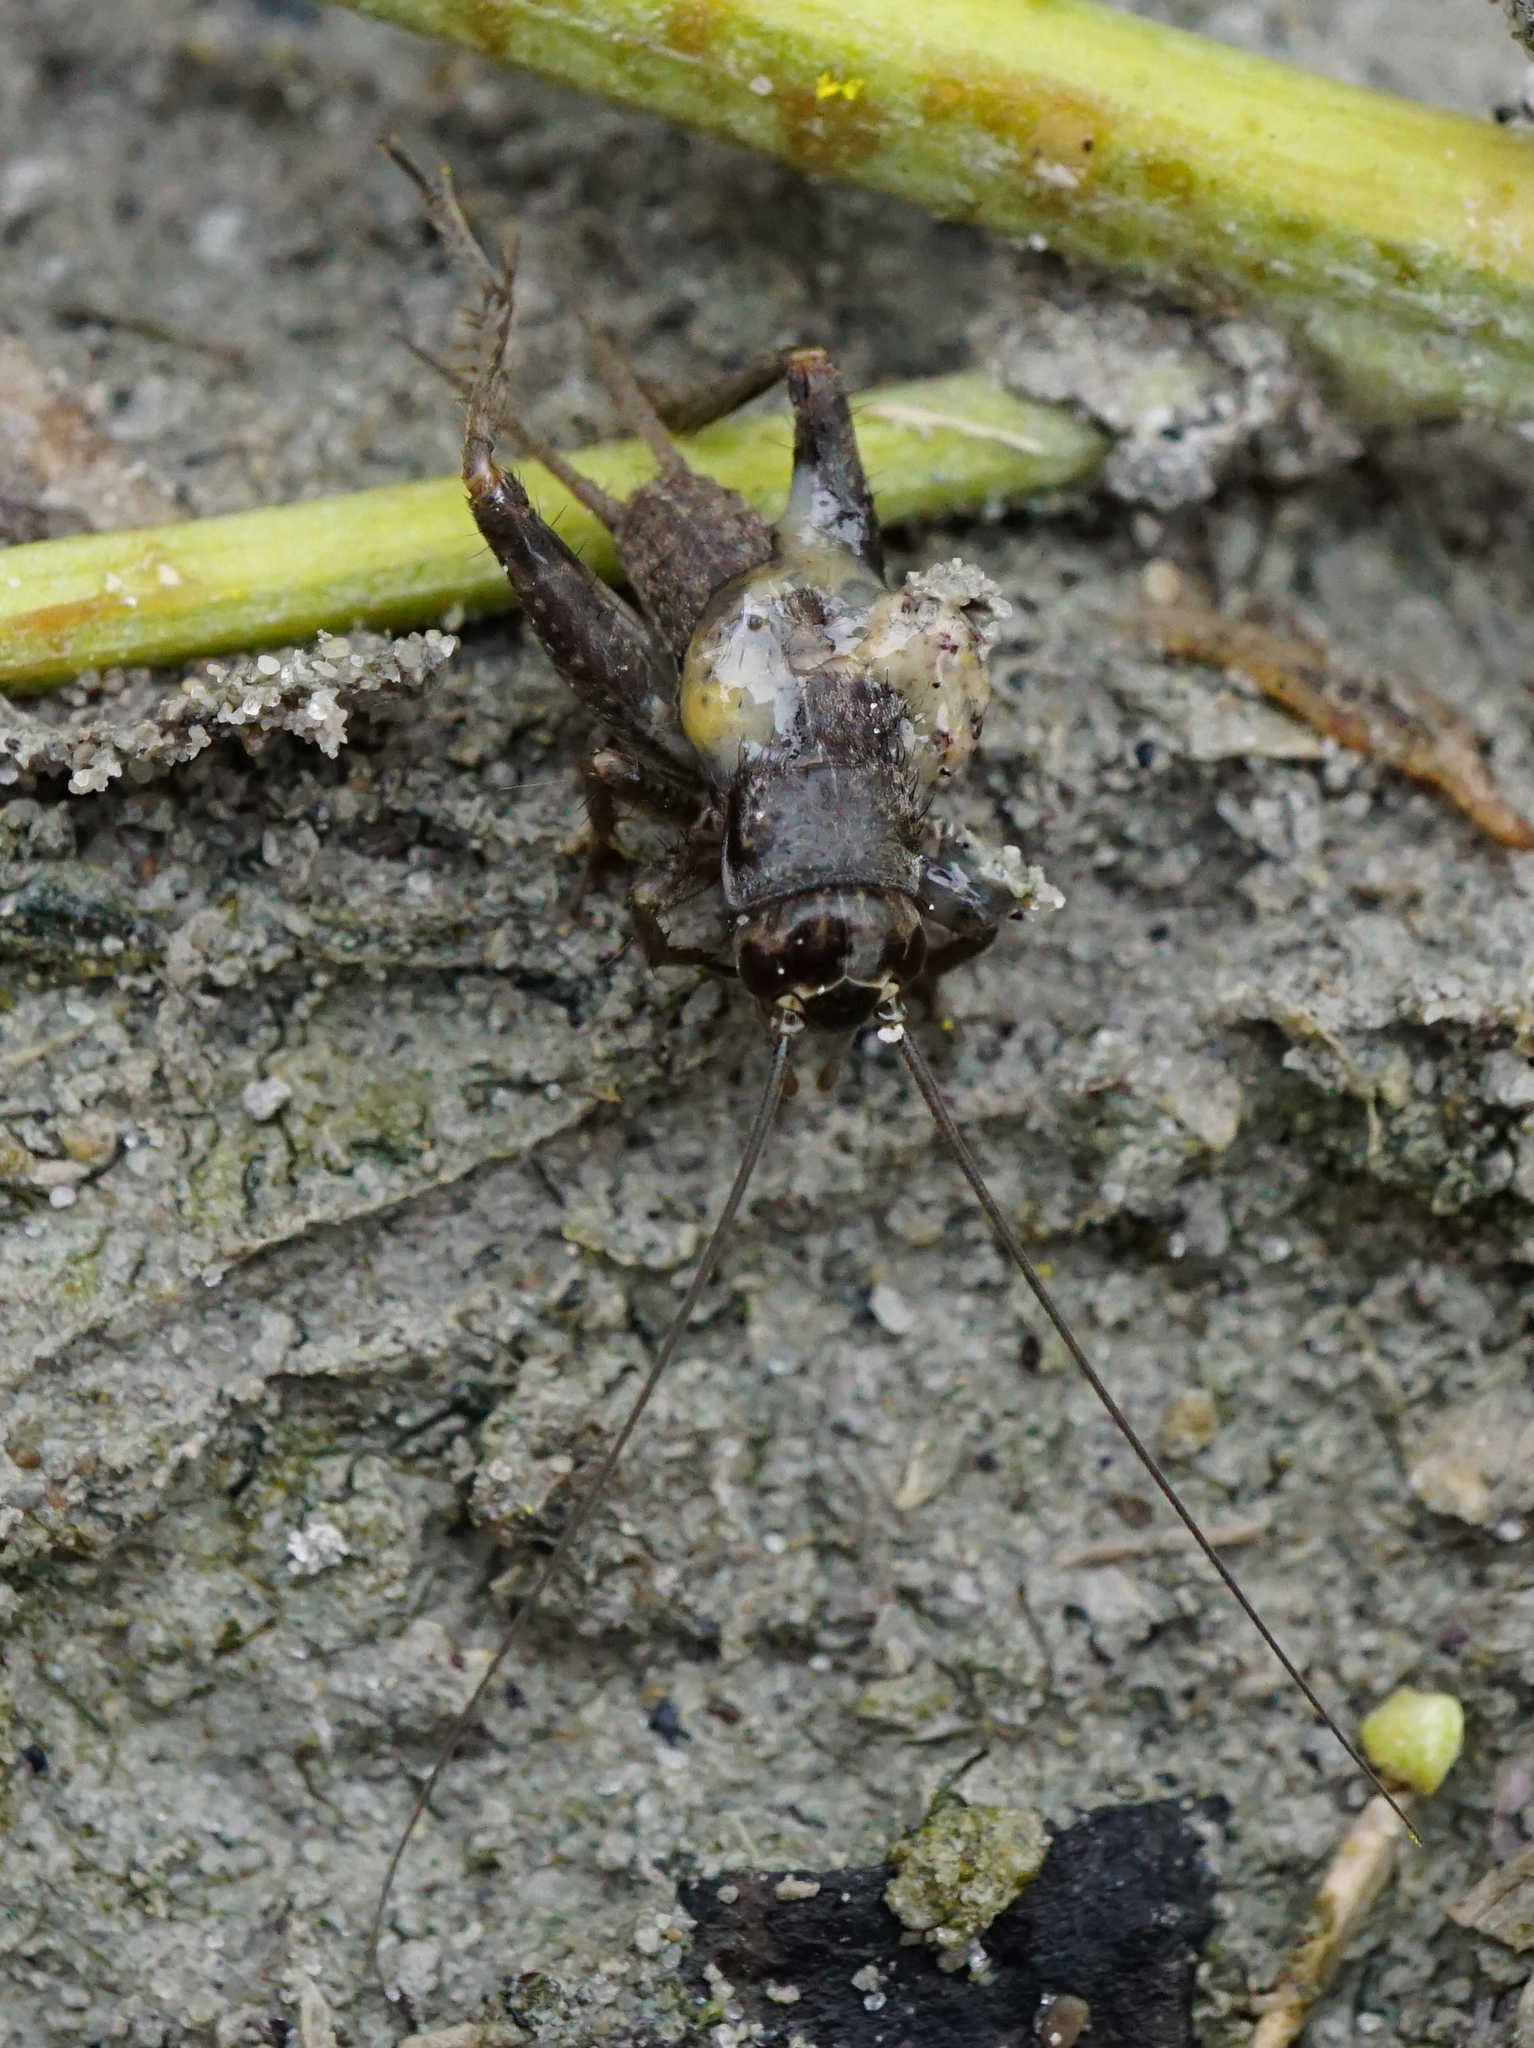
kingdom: Animalia
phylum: Arthropoda
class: Insecta
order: Orthoptera
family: Gryllidae
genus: Eumodicogryllus
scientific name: Eumodicogryllus bordigalensis
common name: Bordeaux cricket
